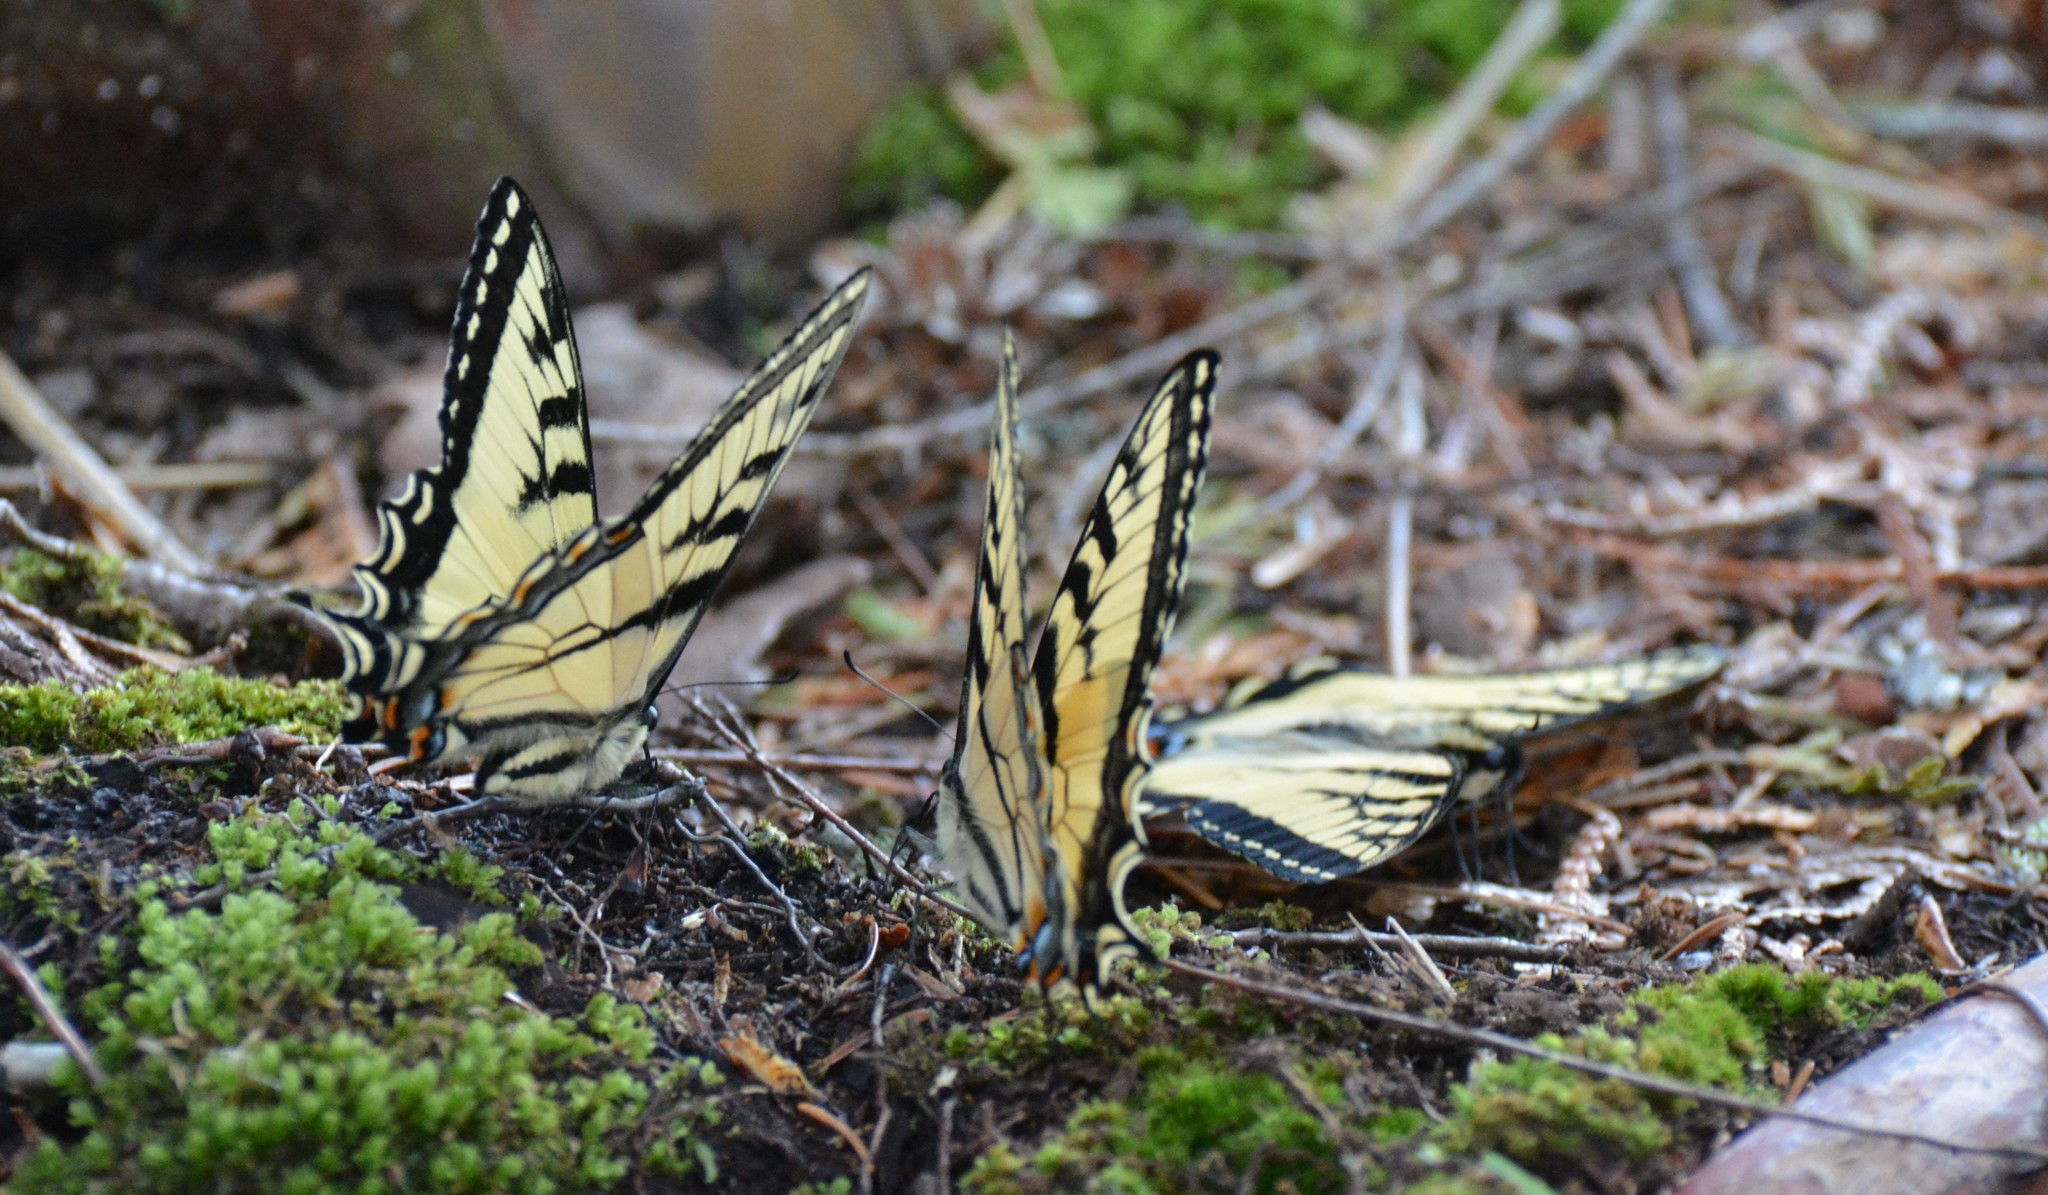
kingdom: Animalia
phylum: Arthropoda
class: Insecta
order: Lepidoptera
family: Papilionidae
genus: Papilio
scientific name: Papilio canadensis
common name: Canadian tiger swallowtail
